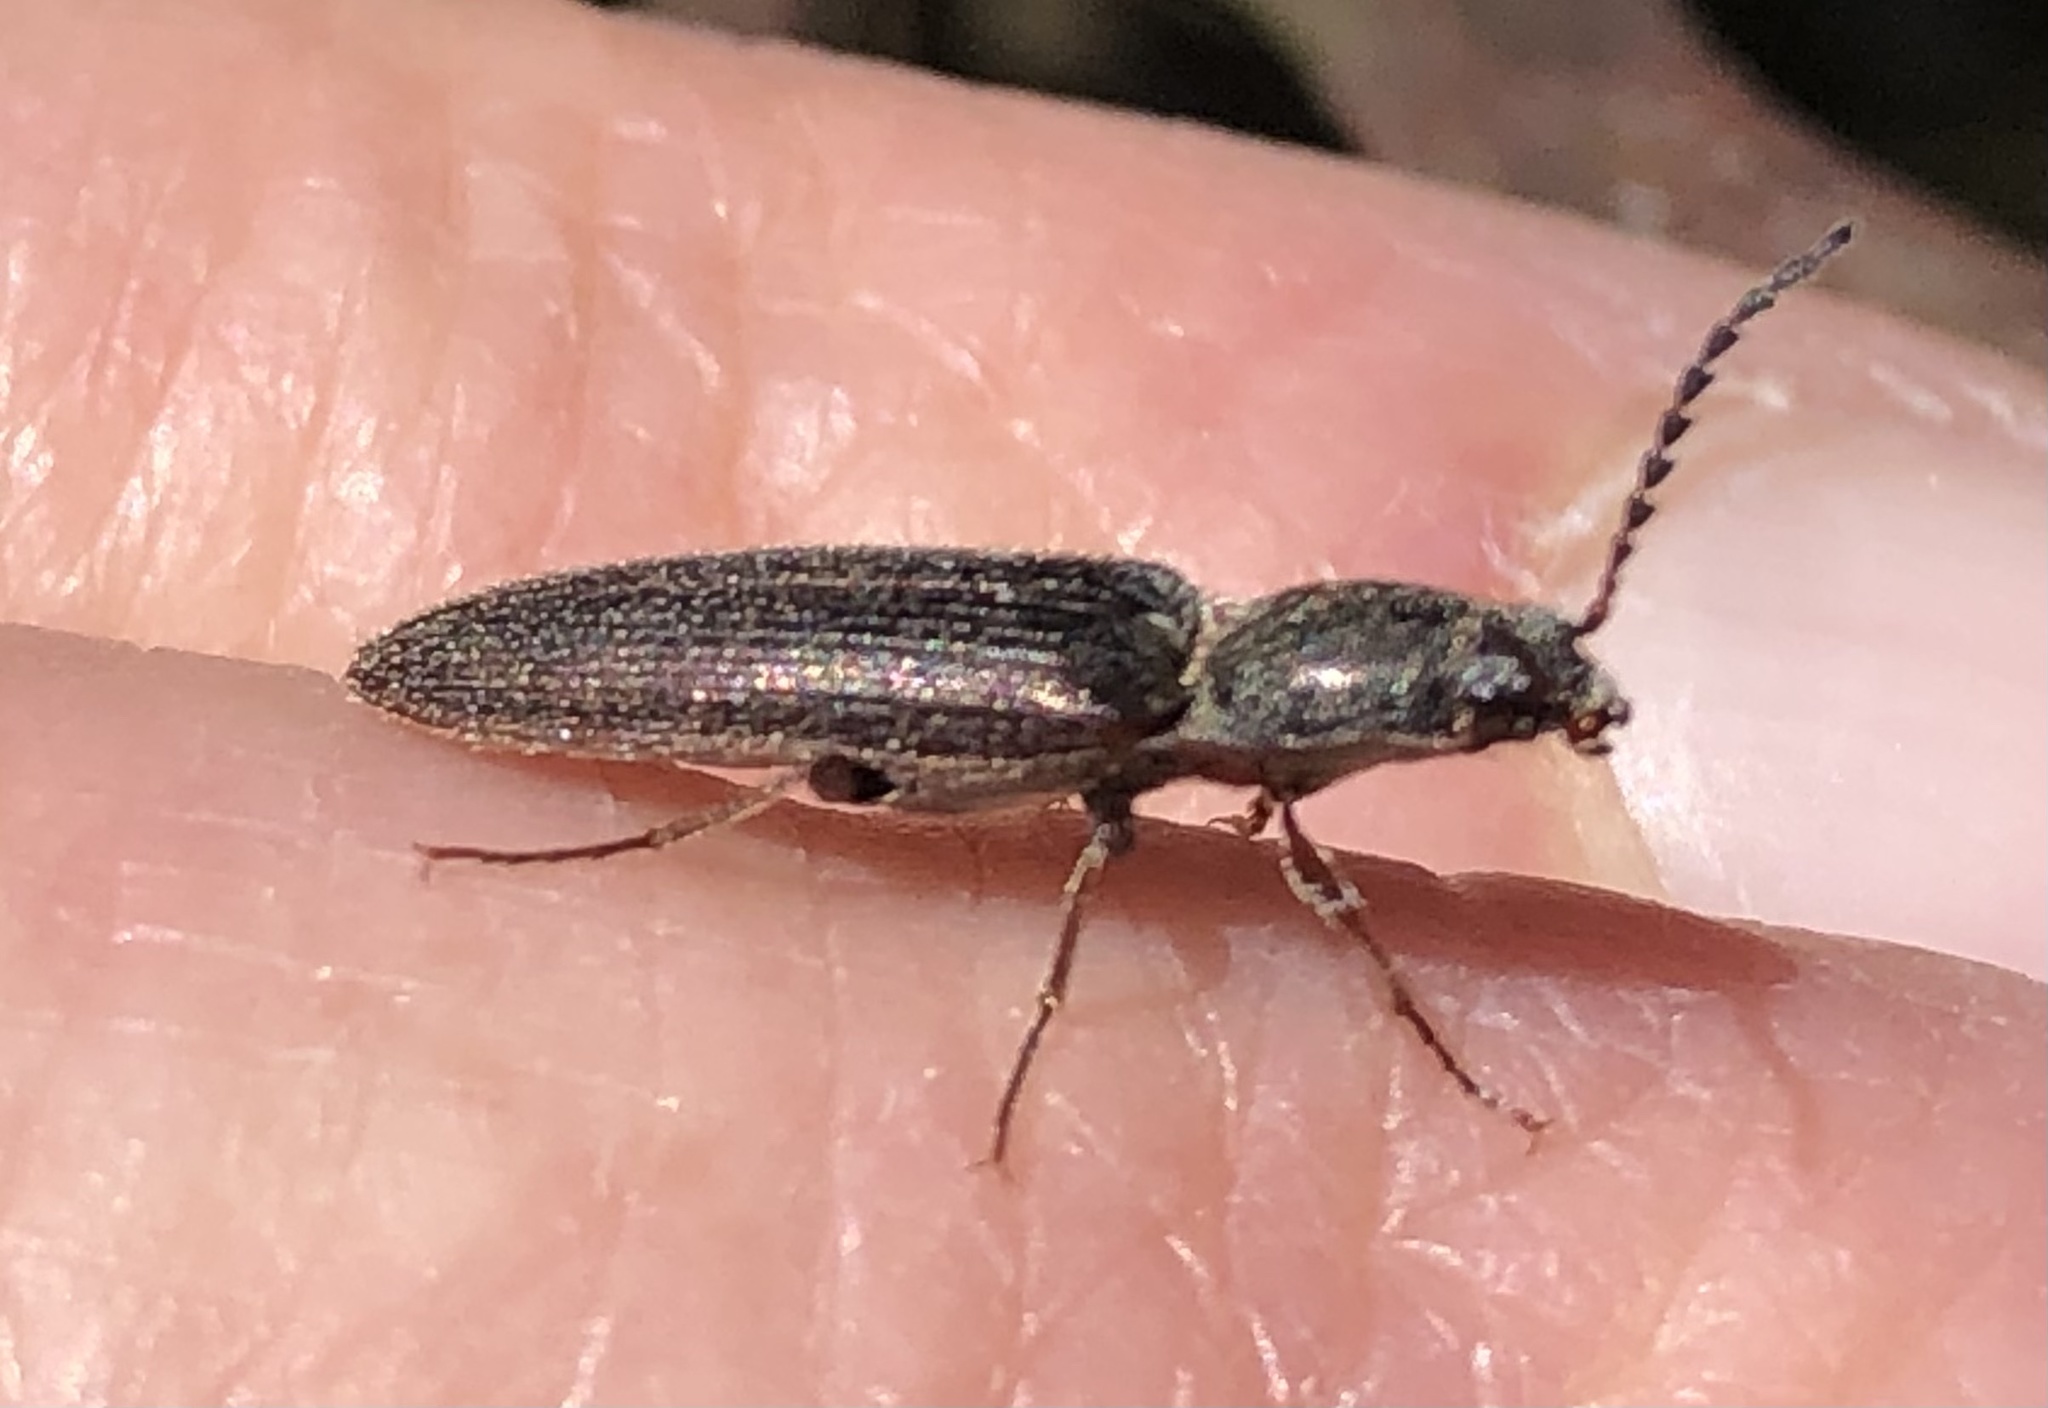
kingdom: Animalia
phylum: Arthropoda
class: Insecta
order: Coleoptera
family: Elateridae
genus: Sylvanelater
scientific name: Sylvanelater cylindriformis
